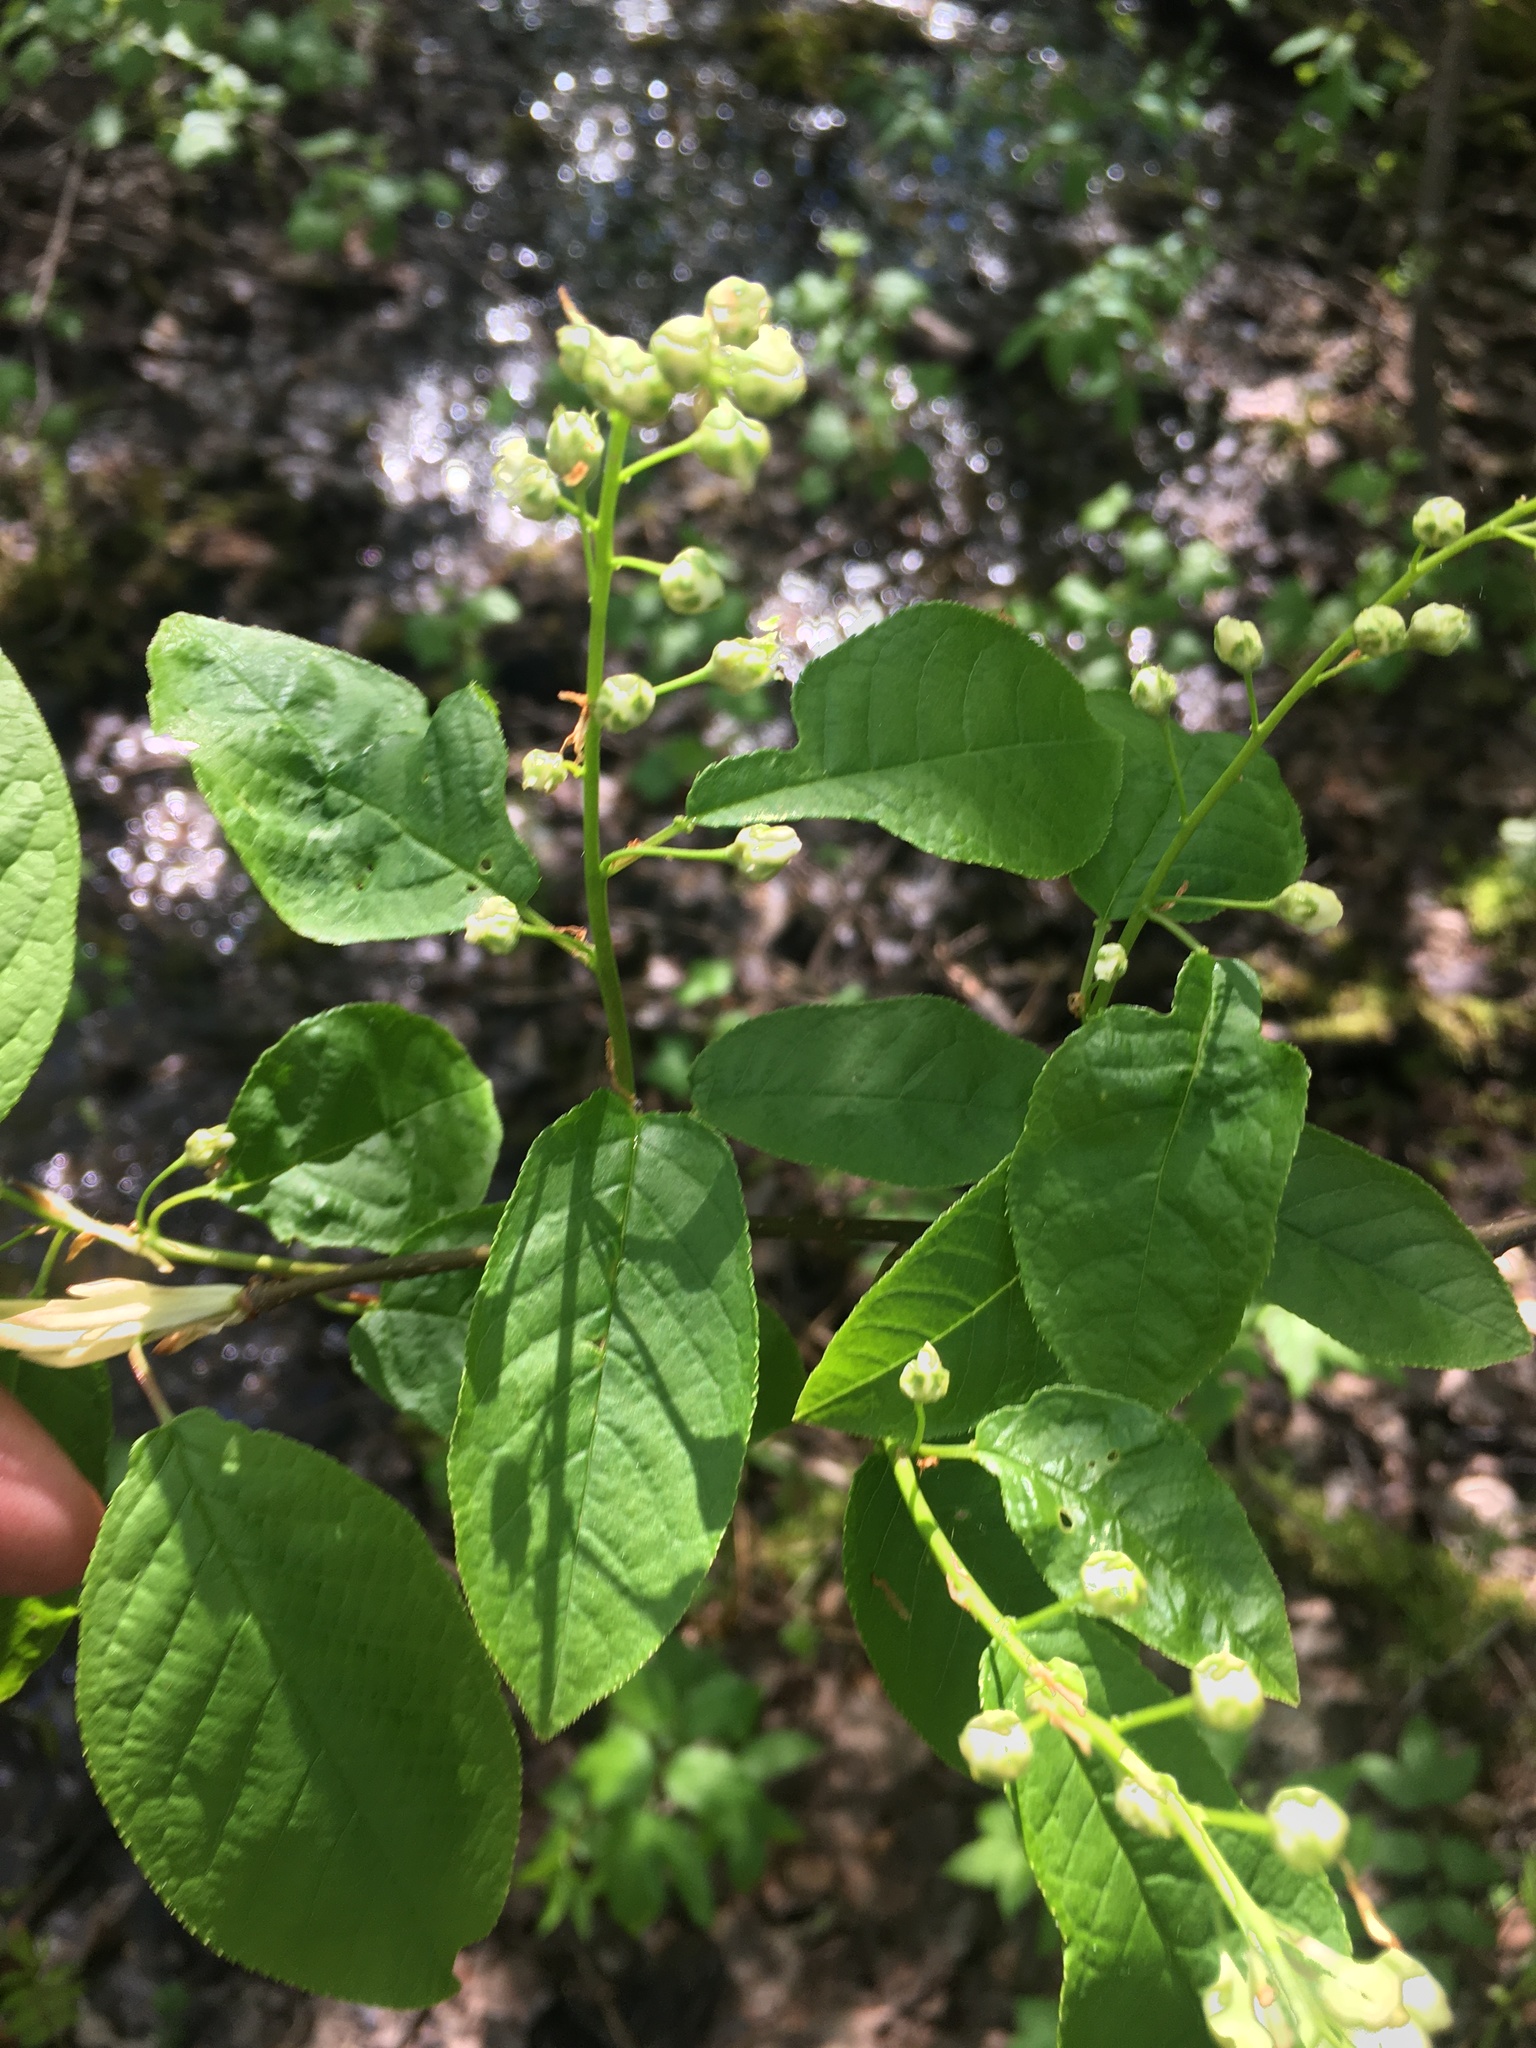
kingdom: Plantae
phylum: Tracheophyta
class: Magnoliopsida
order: Rosales
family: Rosaceae
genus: Prunus
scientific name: Prunus padus
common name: Bird cherry
